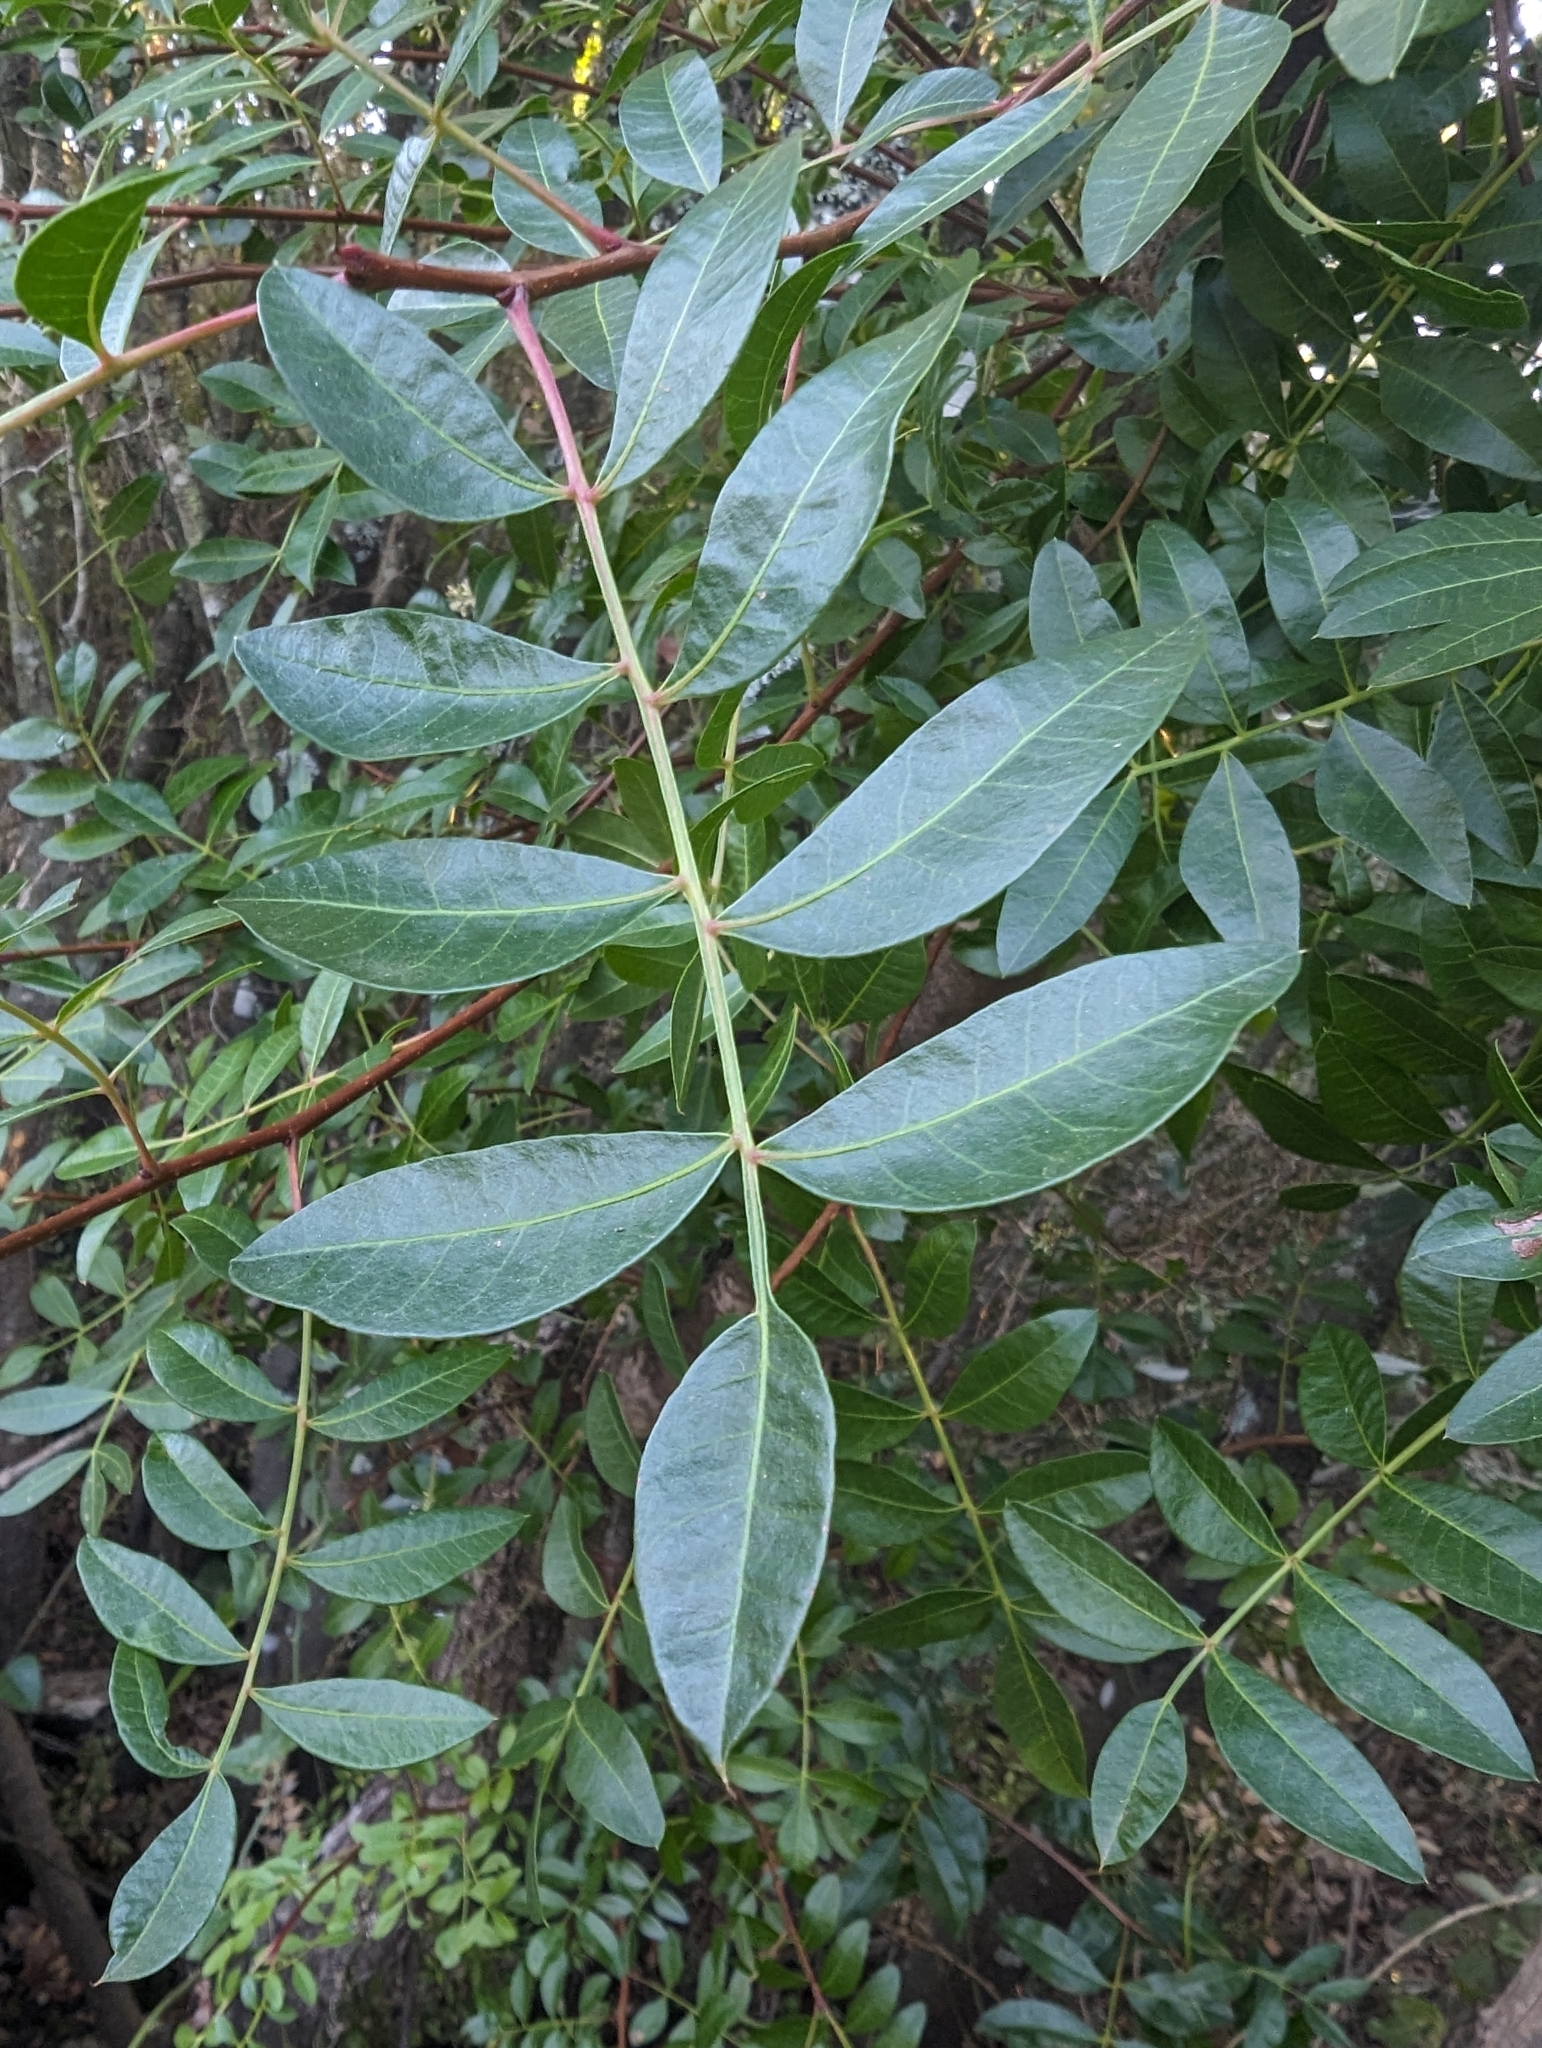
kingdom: Plantae
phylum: Tracheophyta
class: Magnoliopsida
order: Sapindales
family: Anacardiaceae
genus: Pistacia
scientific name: Pistacia saportae
